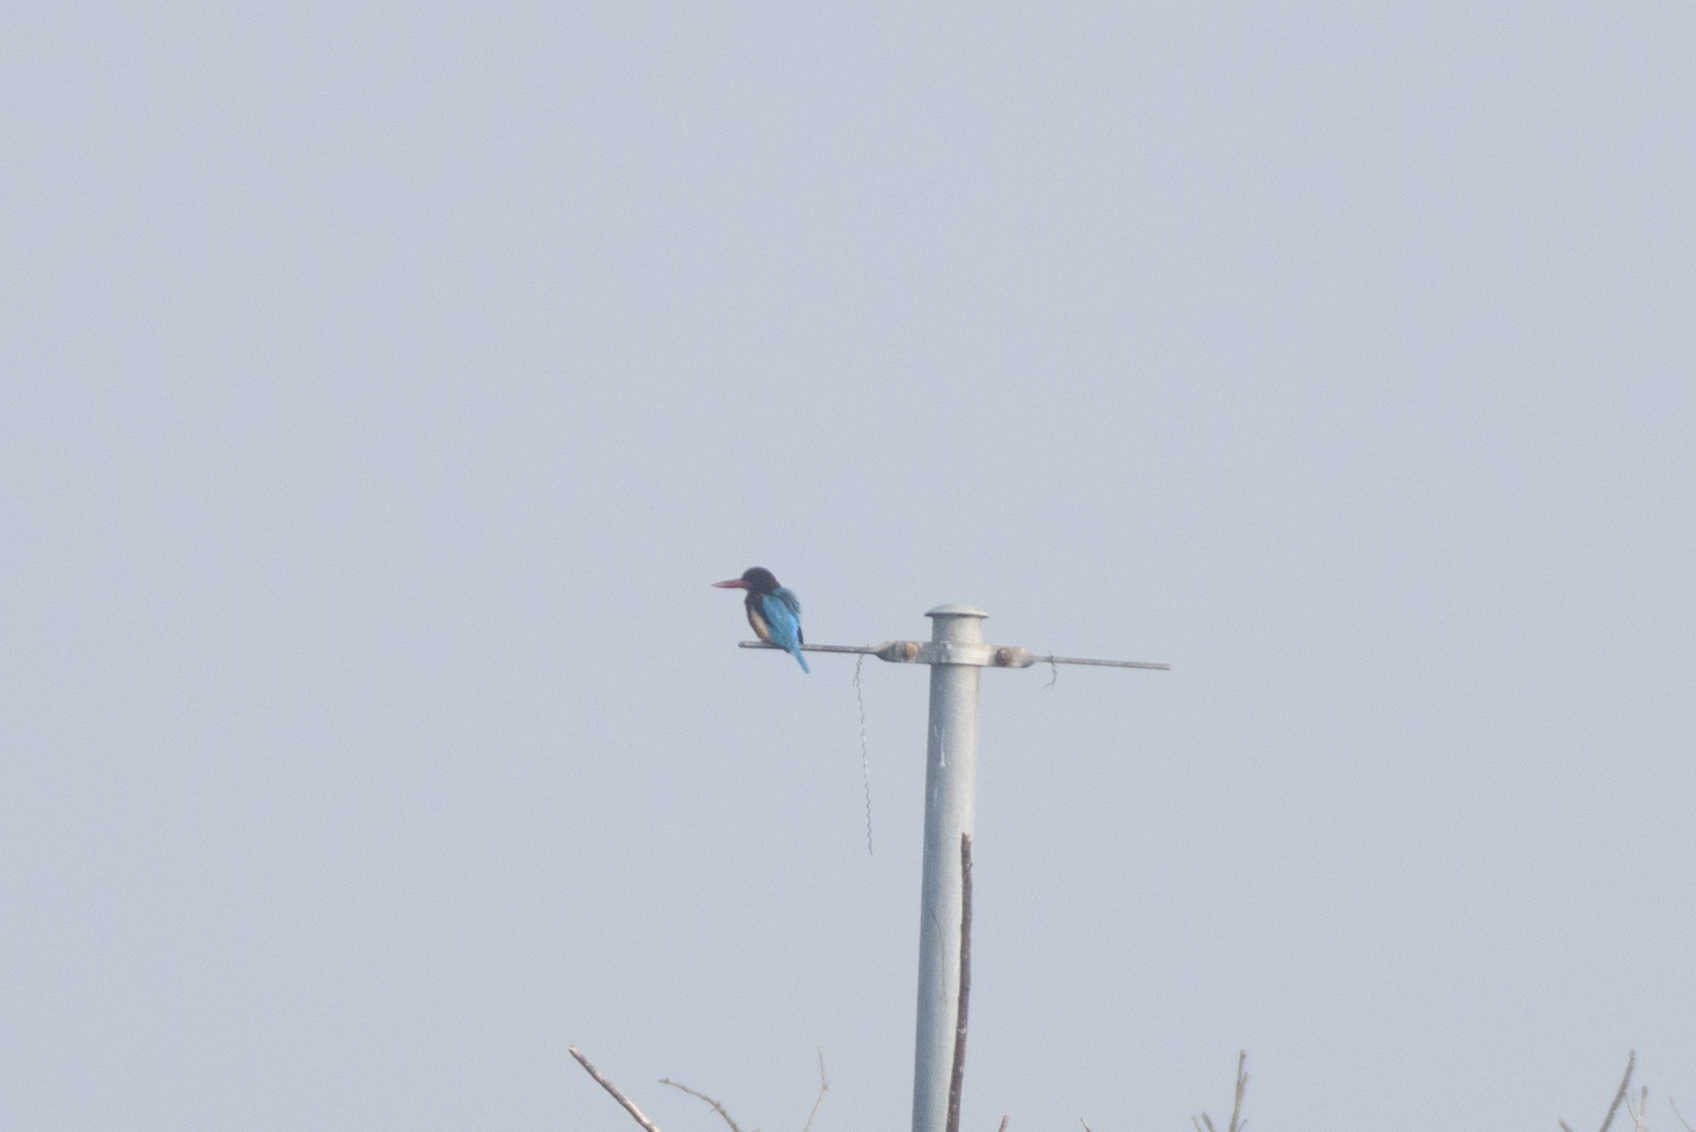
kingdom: Animalia
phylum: Chordata
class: Aves
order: Coraciiformes
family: Alcedinidae
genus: Halcyon
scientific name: Halcyon smyrnensis
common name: White-throated kingfisher
